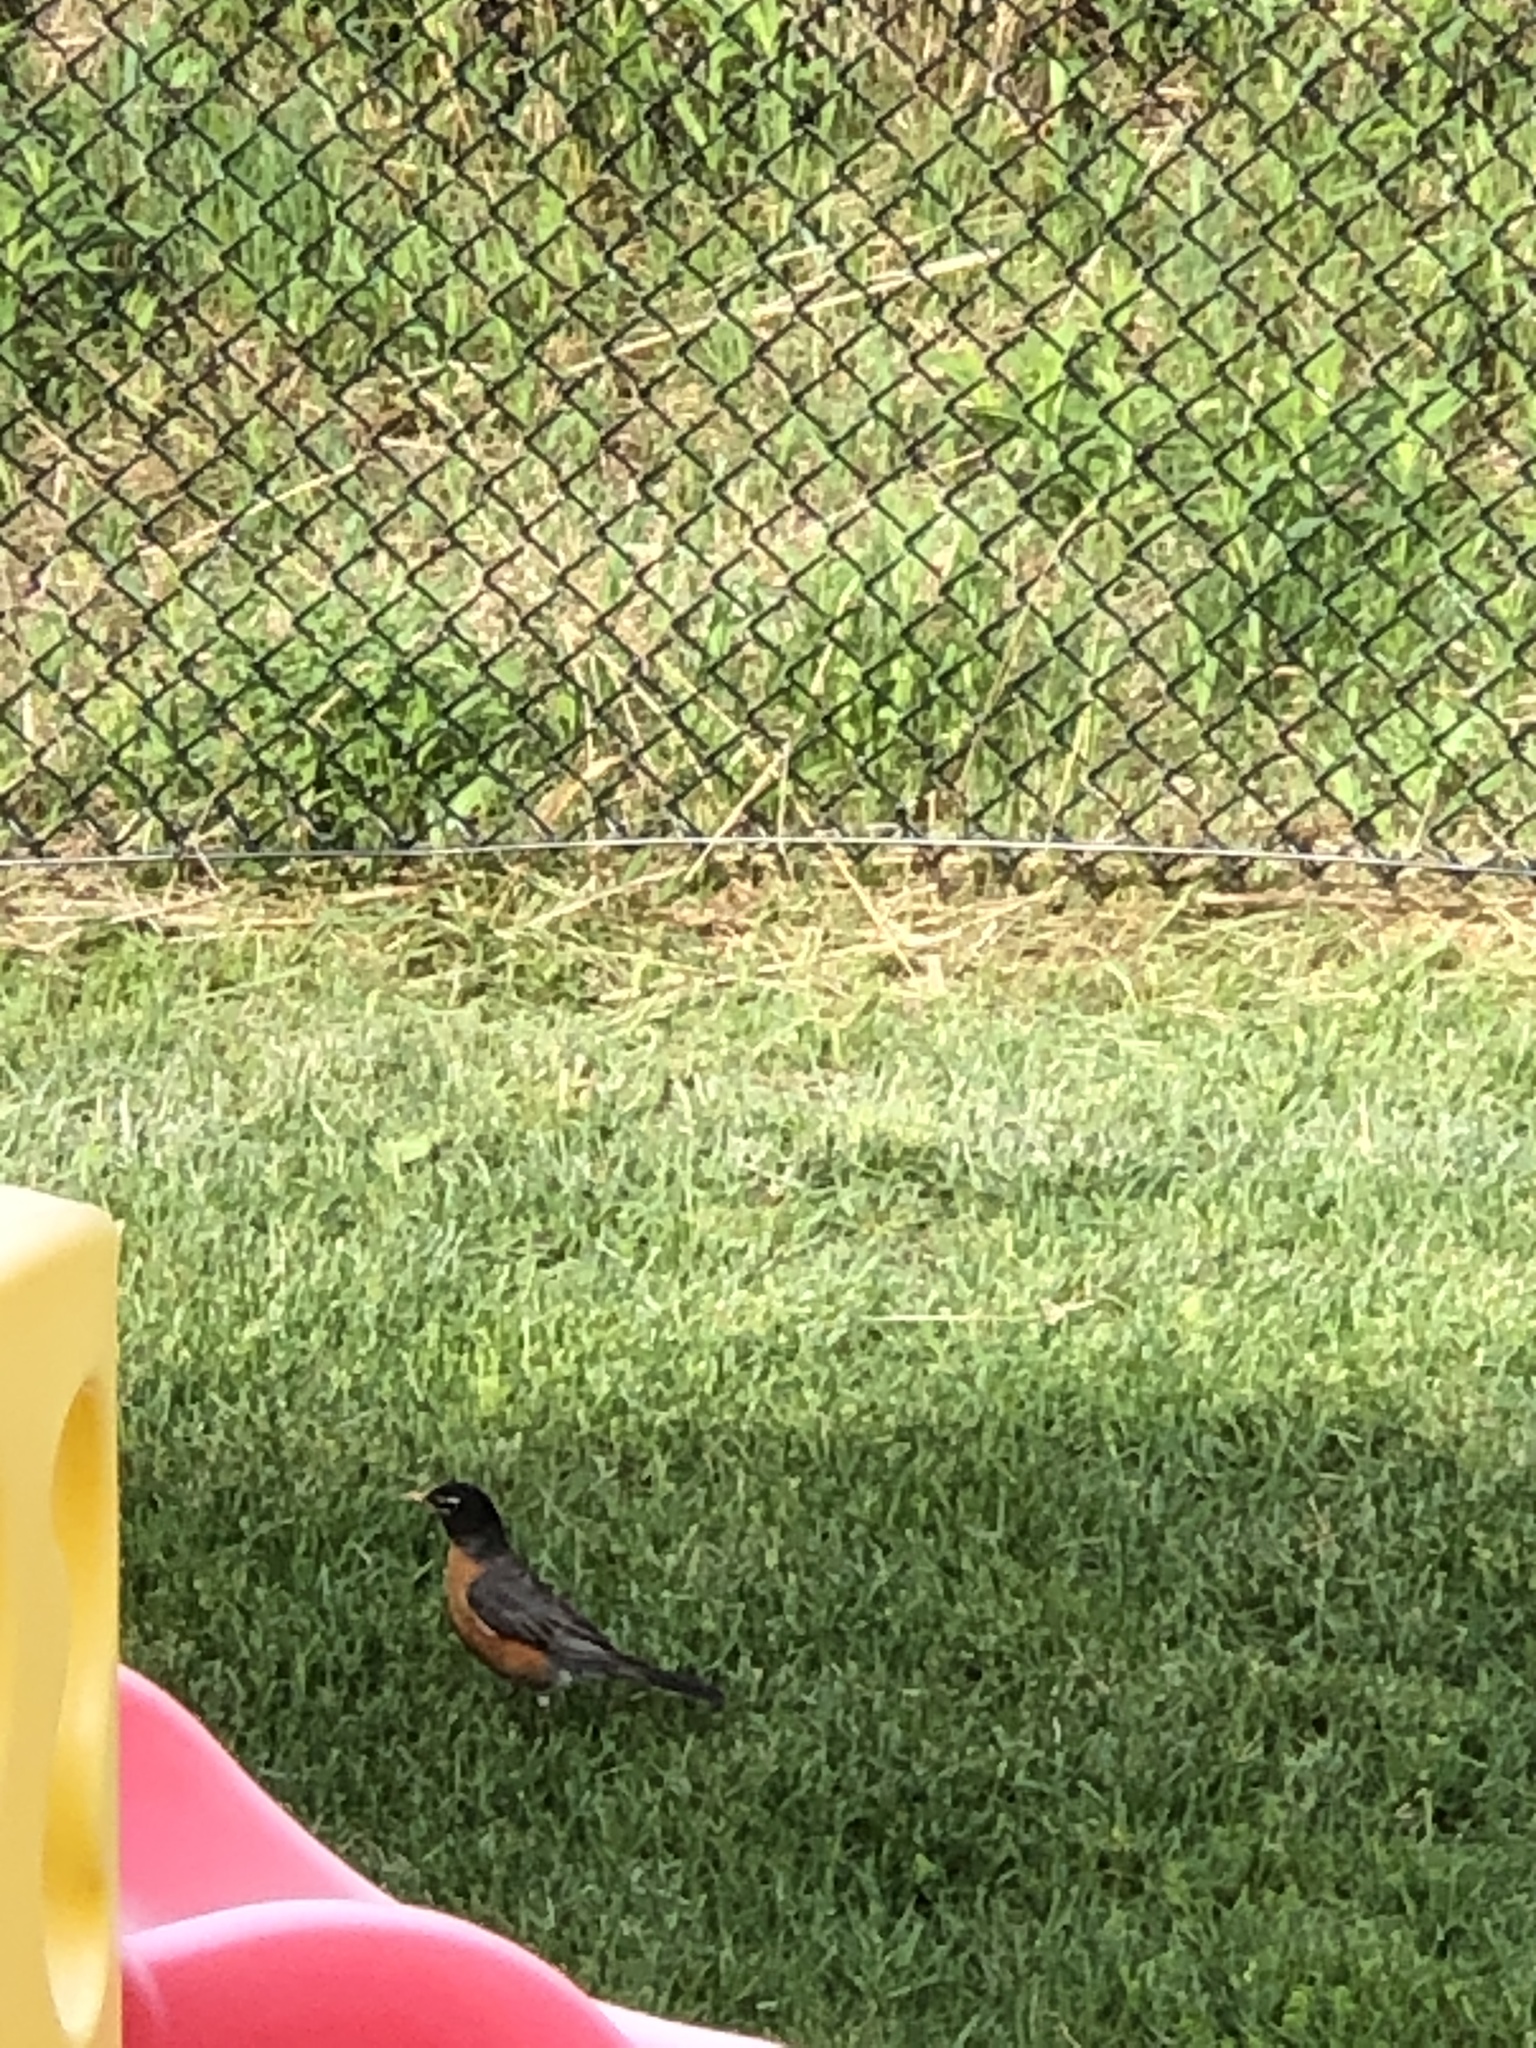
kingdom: Animalia
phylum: Chordata
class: Aves
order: Passeriformes
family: Turdidae
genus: Turdus
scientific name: Turdus migratorius
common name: American robin
